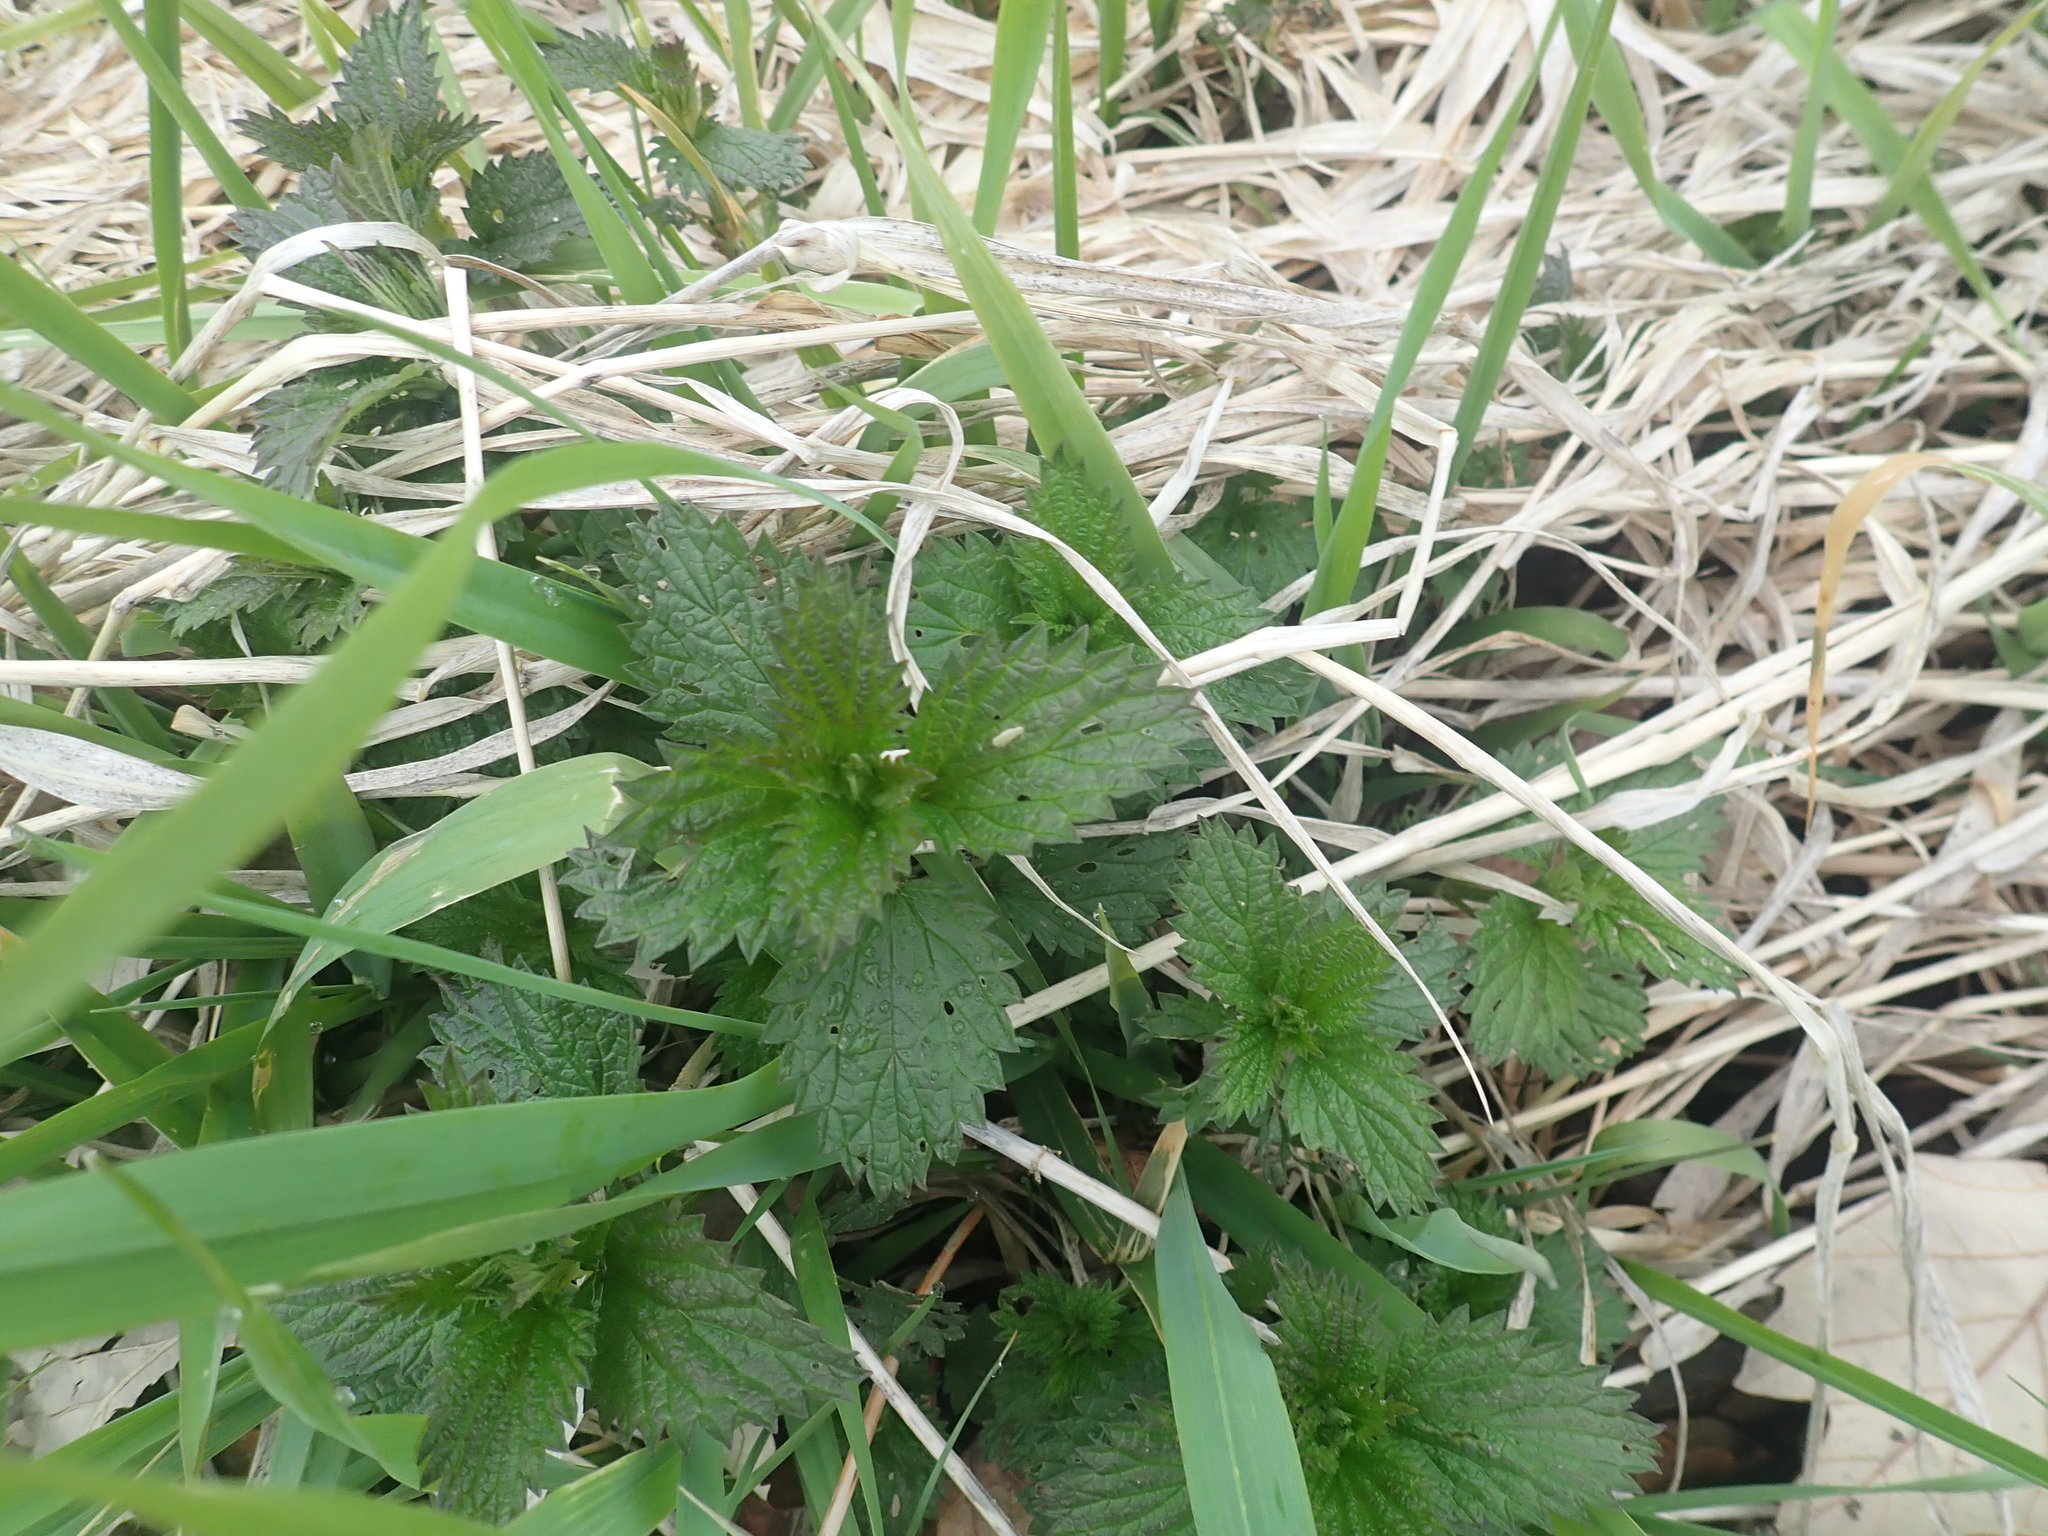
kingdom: Plantae
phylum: Tracheophyta
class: Magnoliopsida
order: Rosales
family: Urticaceae
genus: Urtica
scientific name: Urtica dioica
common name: Common nettle
